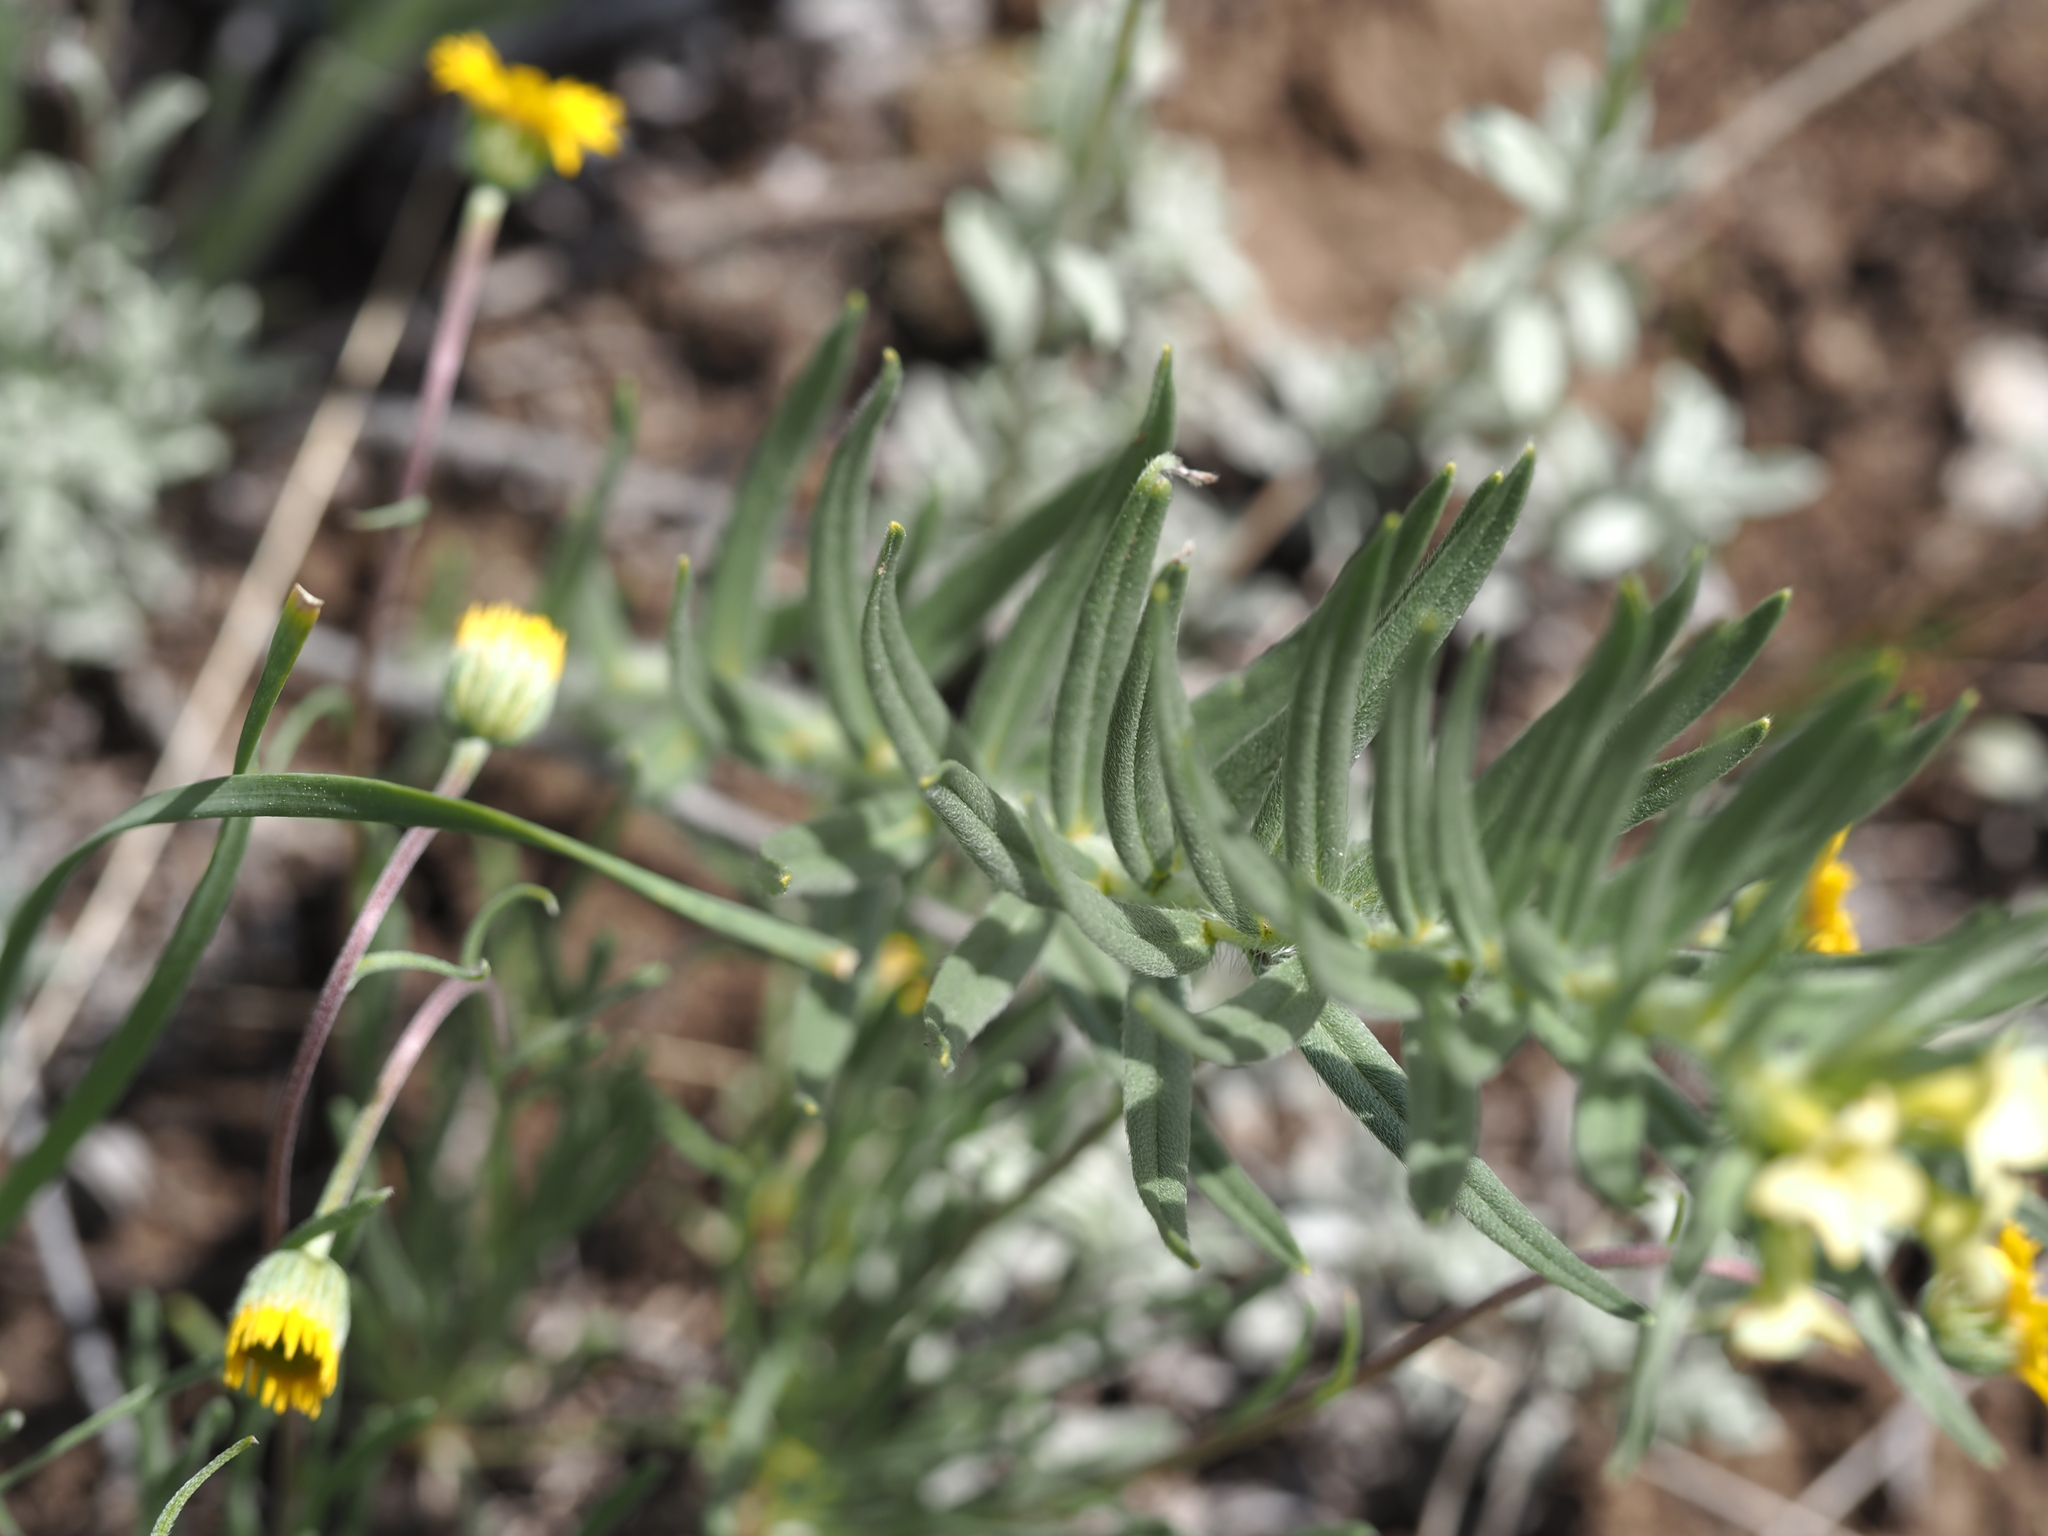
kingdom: Plantae
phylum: Tracheophyta
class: Magnoliopsida
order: Boraginales
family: Boraginaceae
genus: Lithospermum
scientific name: Lithospermum ruderale
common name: Western gromwell
